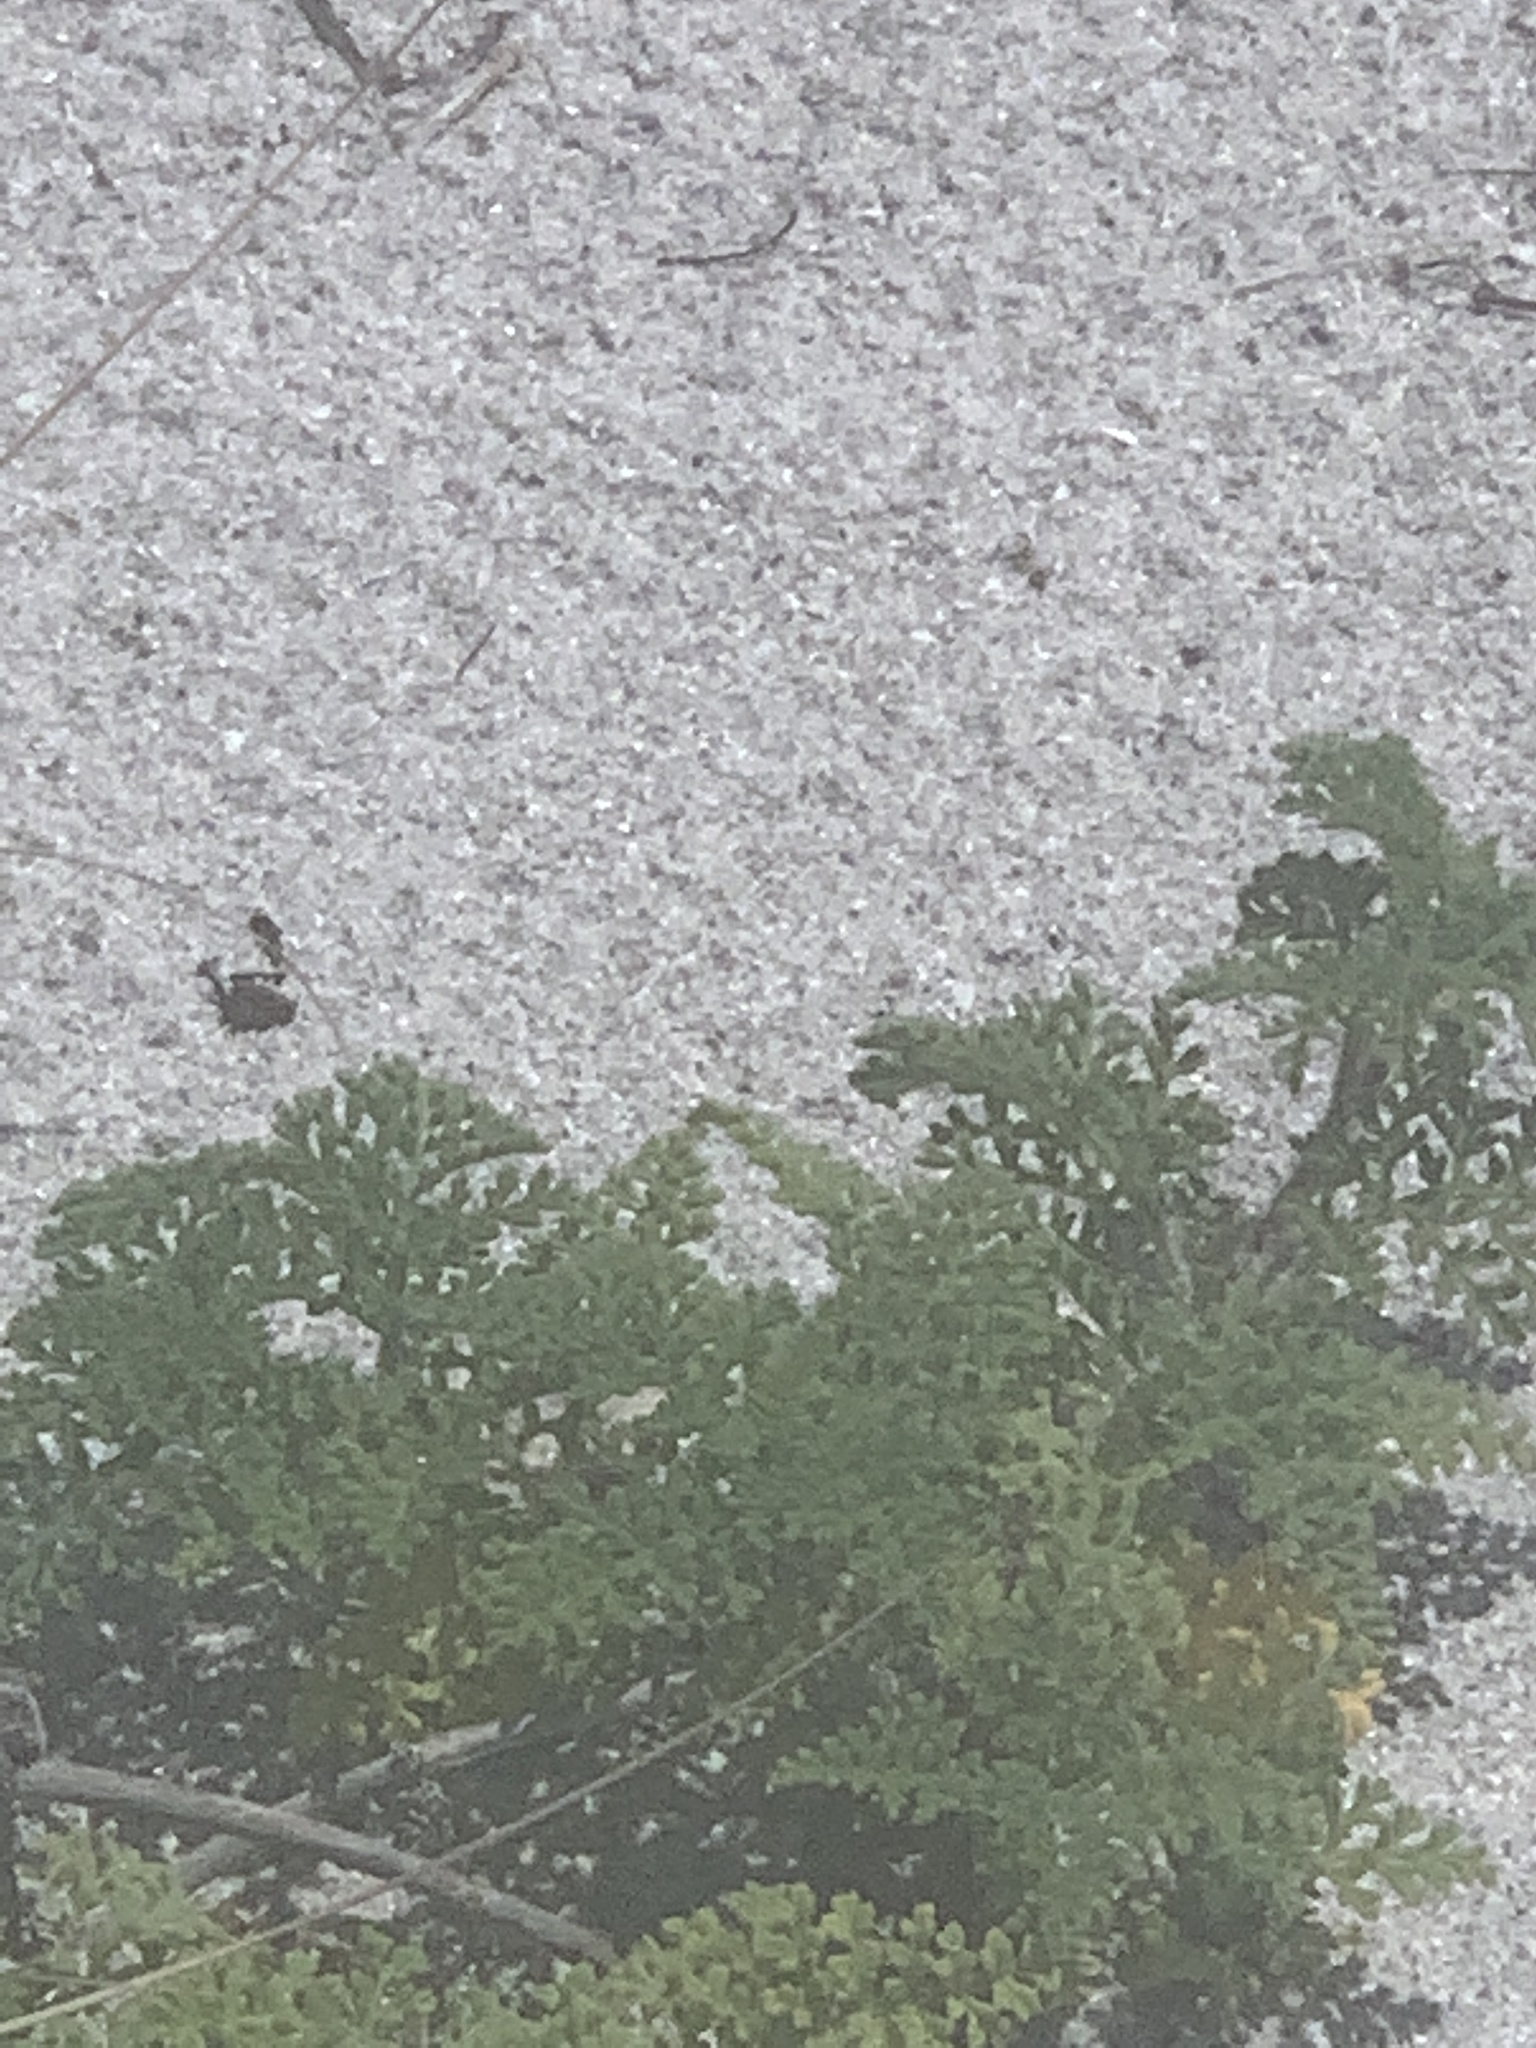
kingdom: Plantae
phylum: Tracheophyta
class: Magnoliopsida
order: Asterales
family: Asteraceae
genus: Ambrosia
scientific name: Ambrosia hispida
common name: Coastal ragweed
